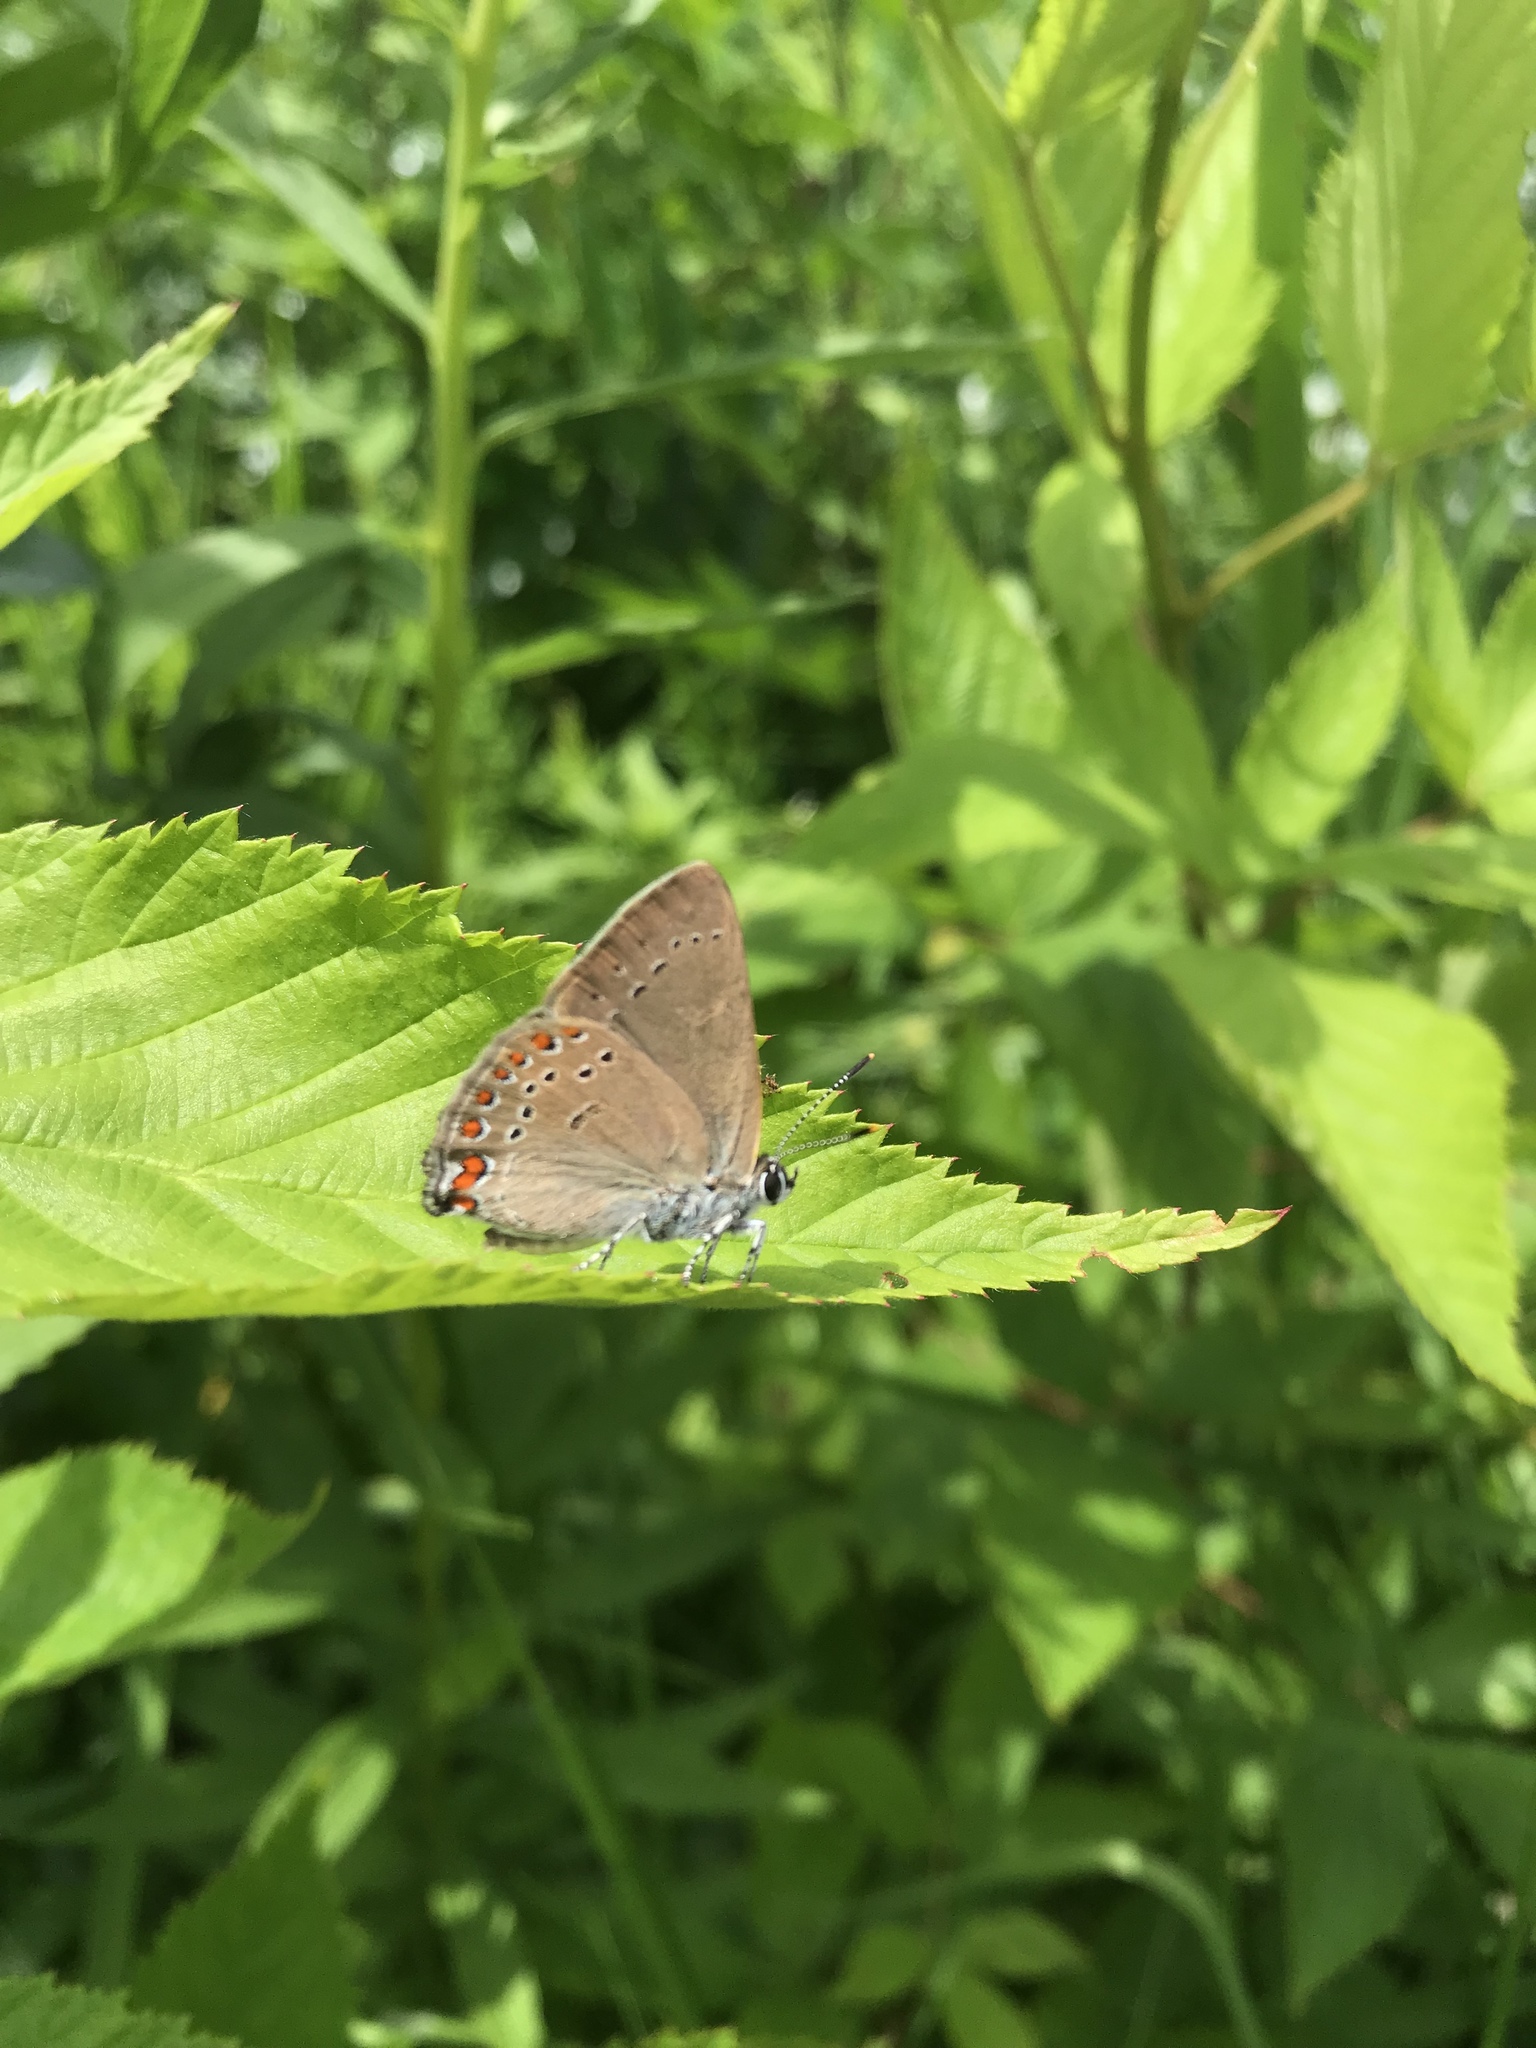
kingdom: Animalia
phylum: Arthropoda
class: Insecta
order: Lepidoptera
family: Lycaenidae
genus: Harkenclenus
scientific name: Harkenclenus titus
